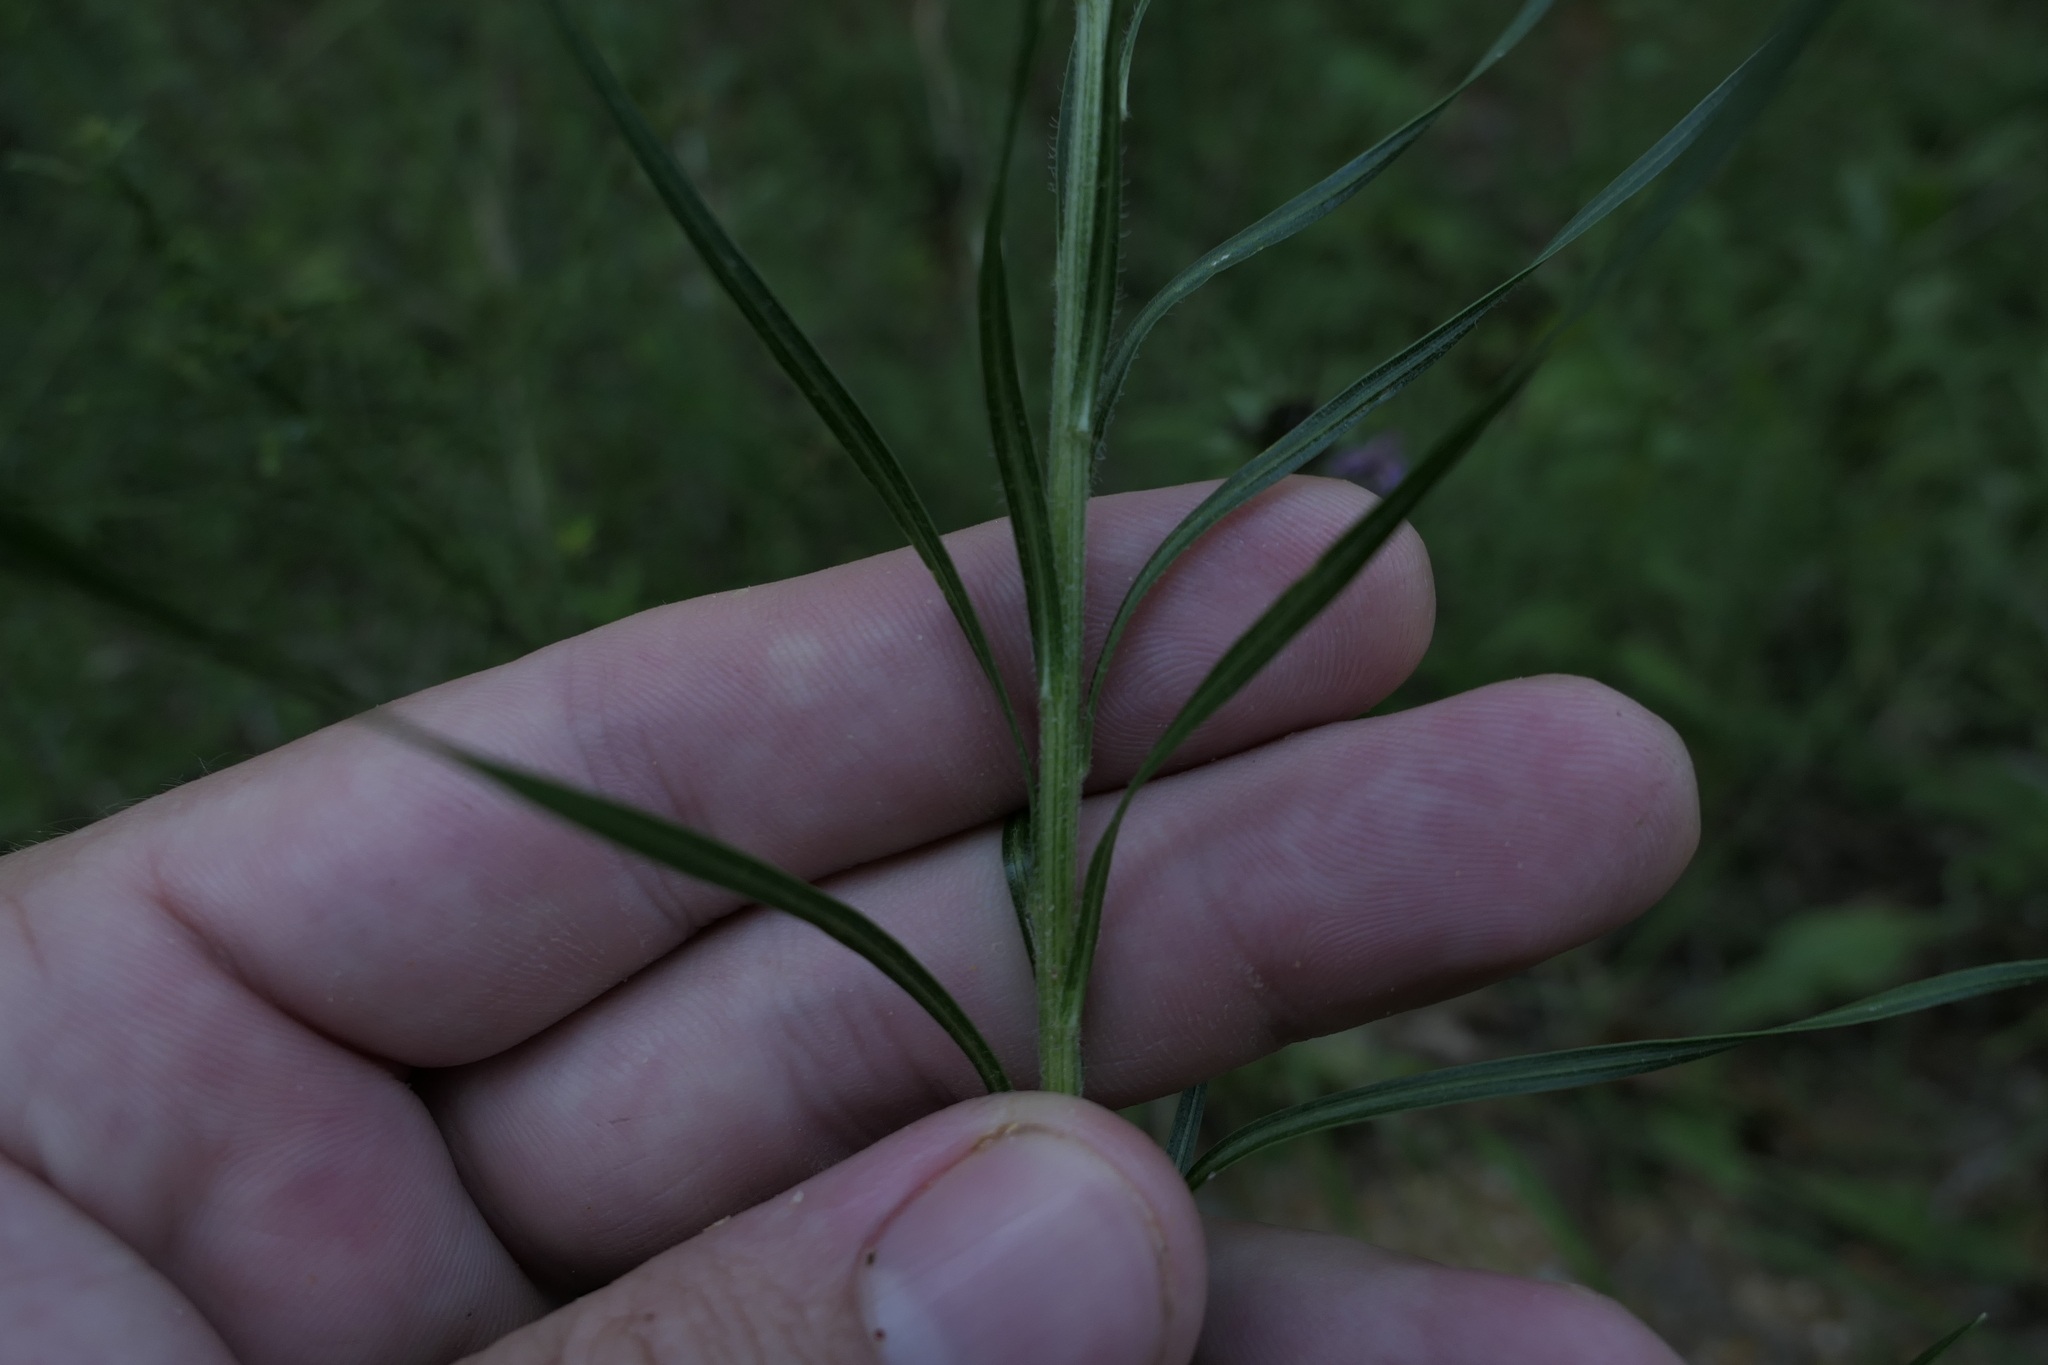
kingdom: Plantae
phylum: Tracheophyta
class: Magnoliopsida
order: Asterales
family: Asteraceae
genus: Liatris
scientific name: Liatris squarrosa
